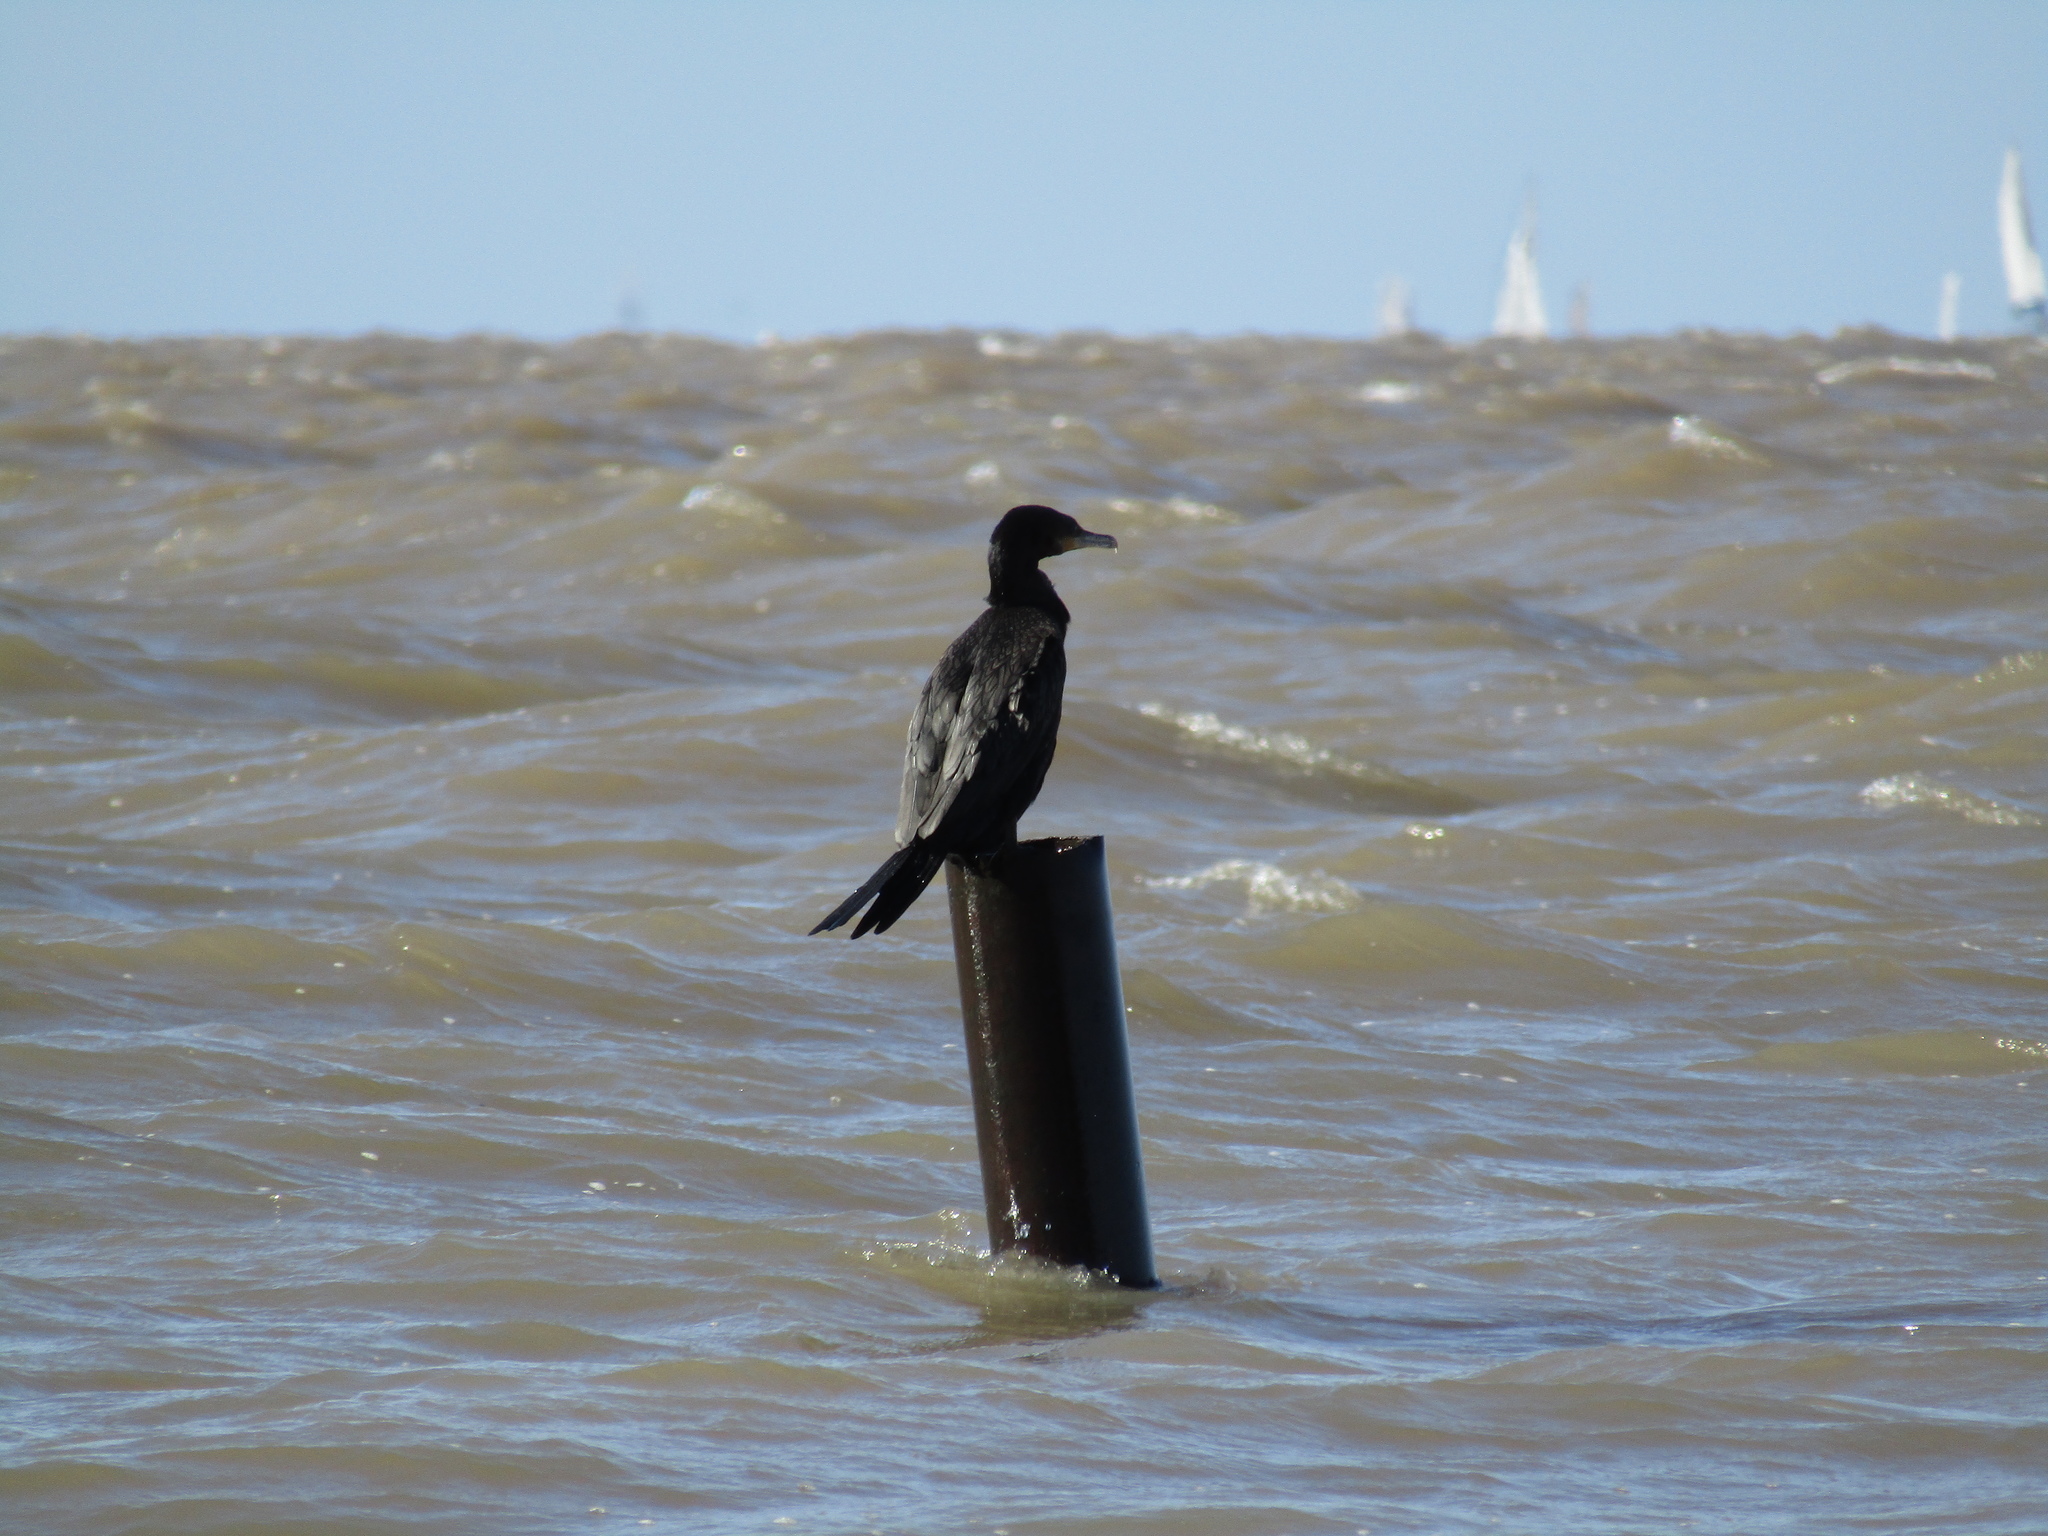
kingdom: Animalia
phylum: Chordata
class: Aves
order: Suliformes
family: Phalacrocoracidae
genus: Phalacrocorax
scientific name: Phalacrocorax brasilianus
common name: Neotropic cormorant
